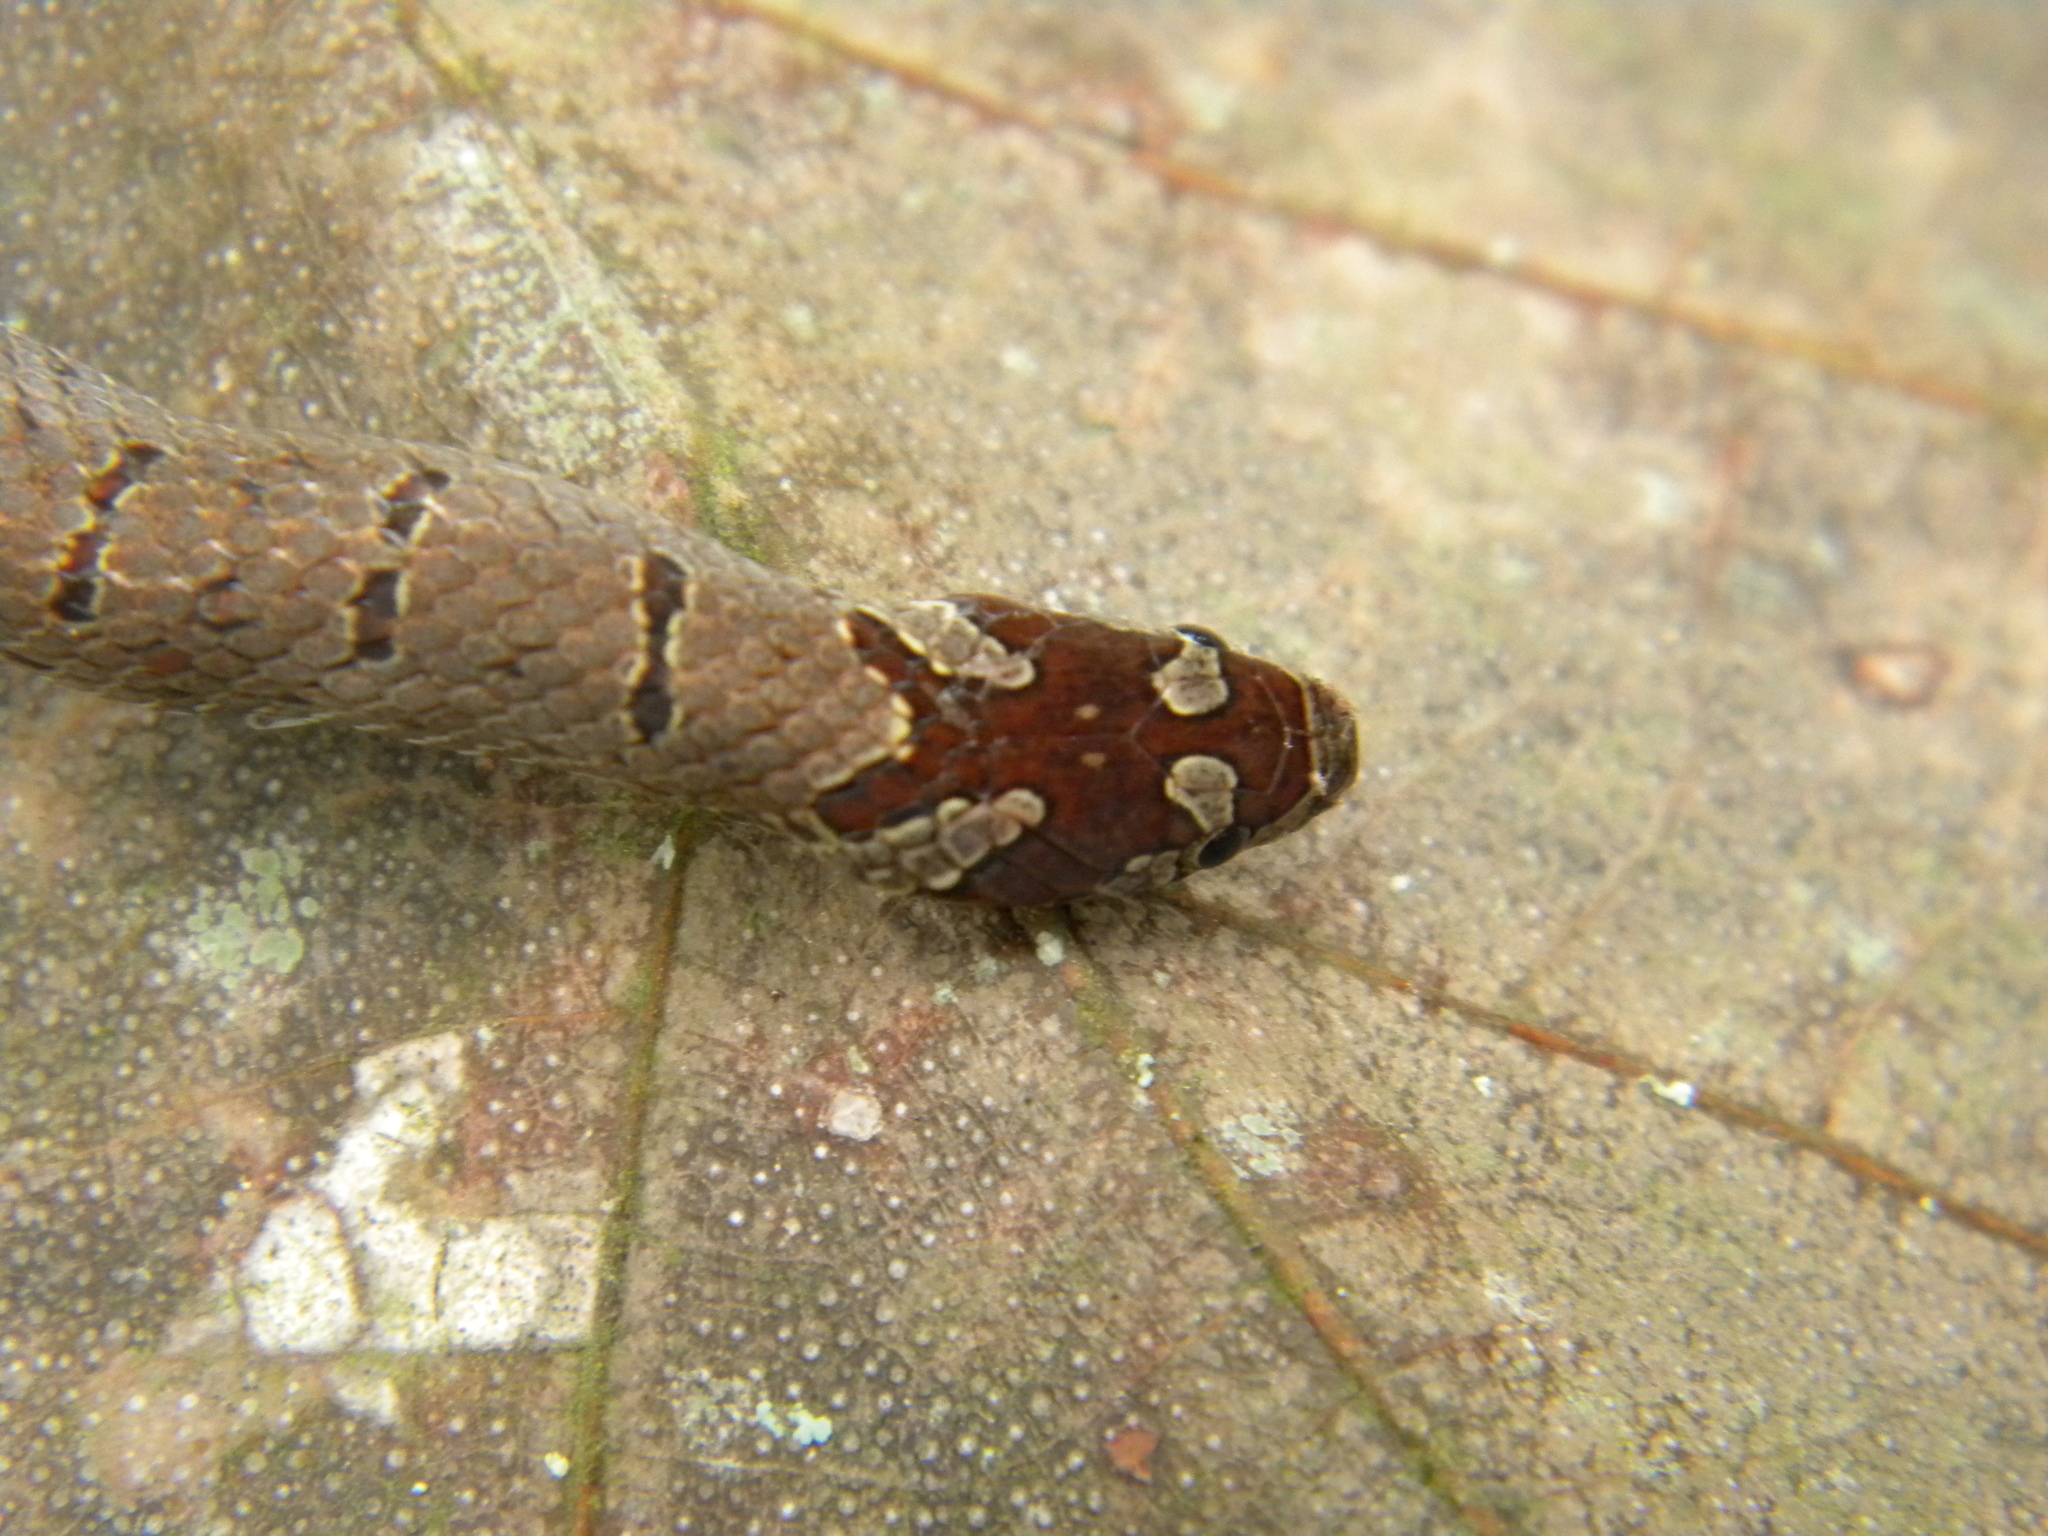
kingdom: Animalia
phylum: Chordata
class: Squamata
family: Colubridae
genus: Oligodon
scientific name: Oligodon affinis
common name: Malabar brown kukri snake
